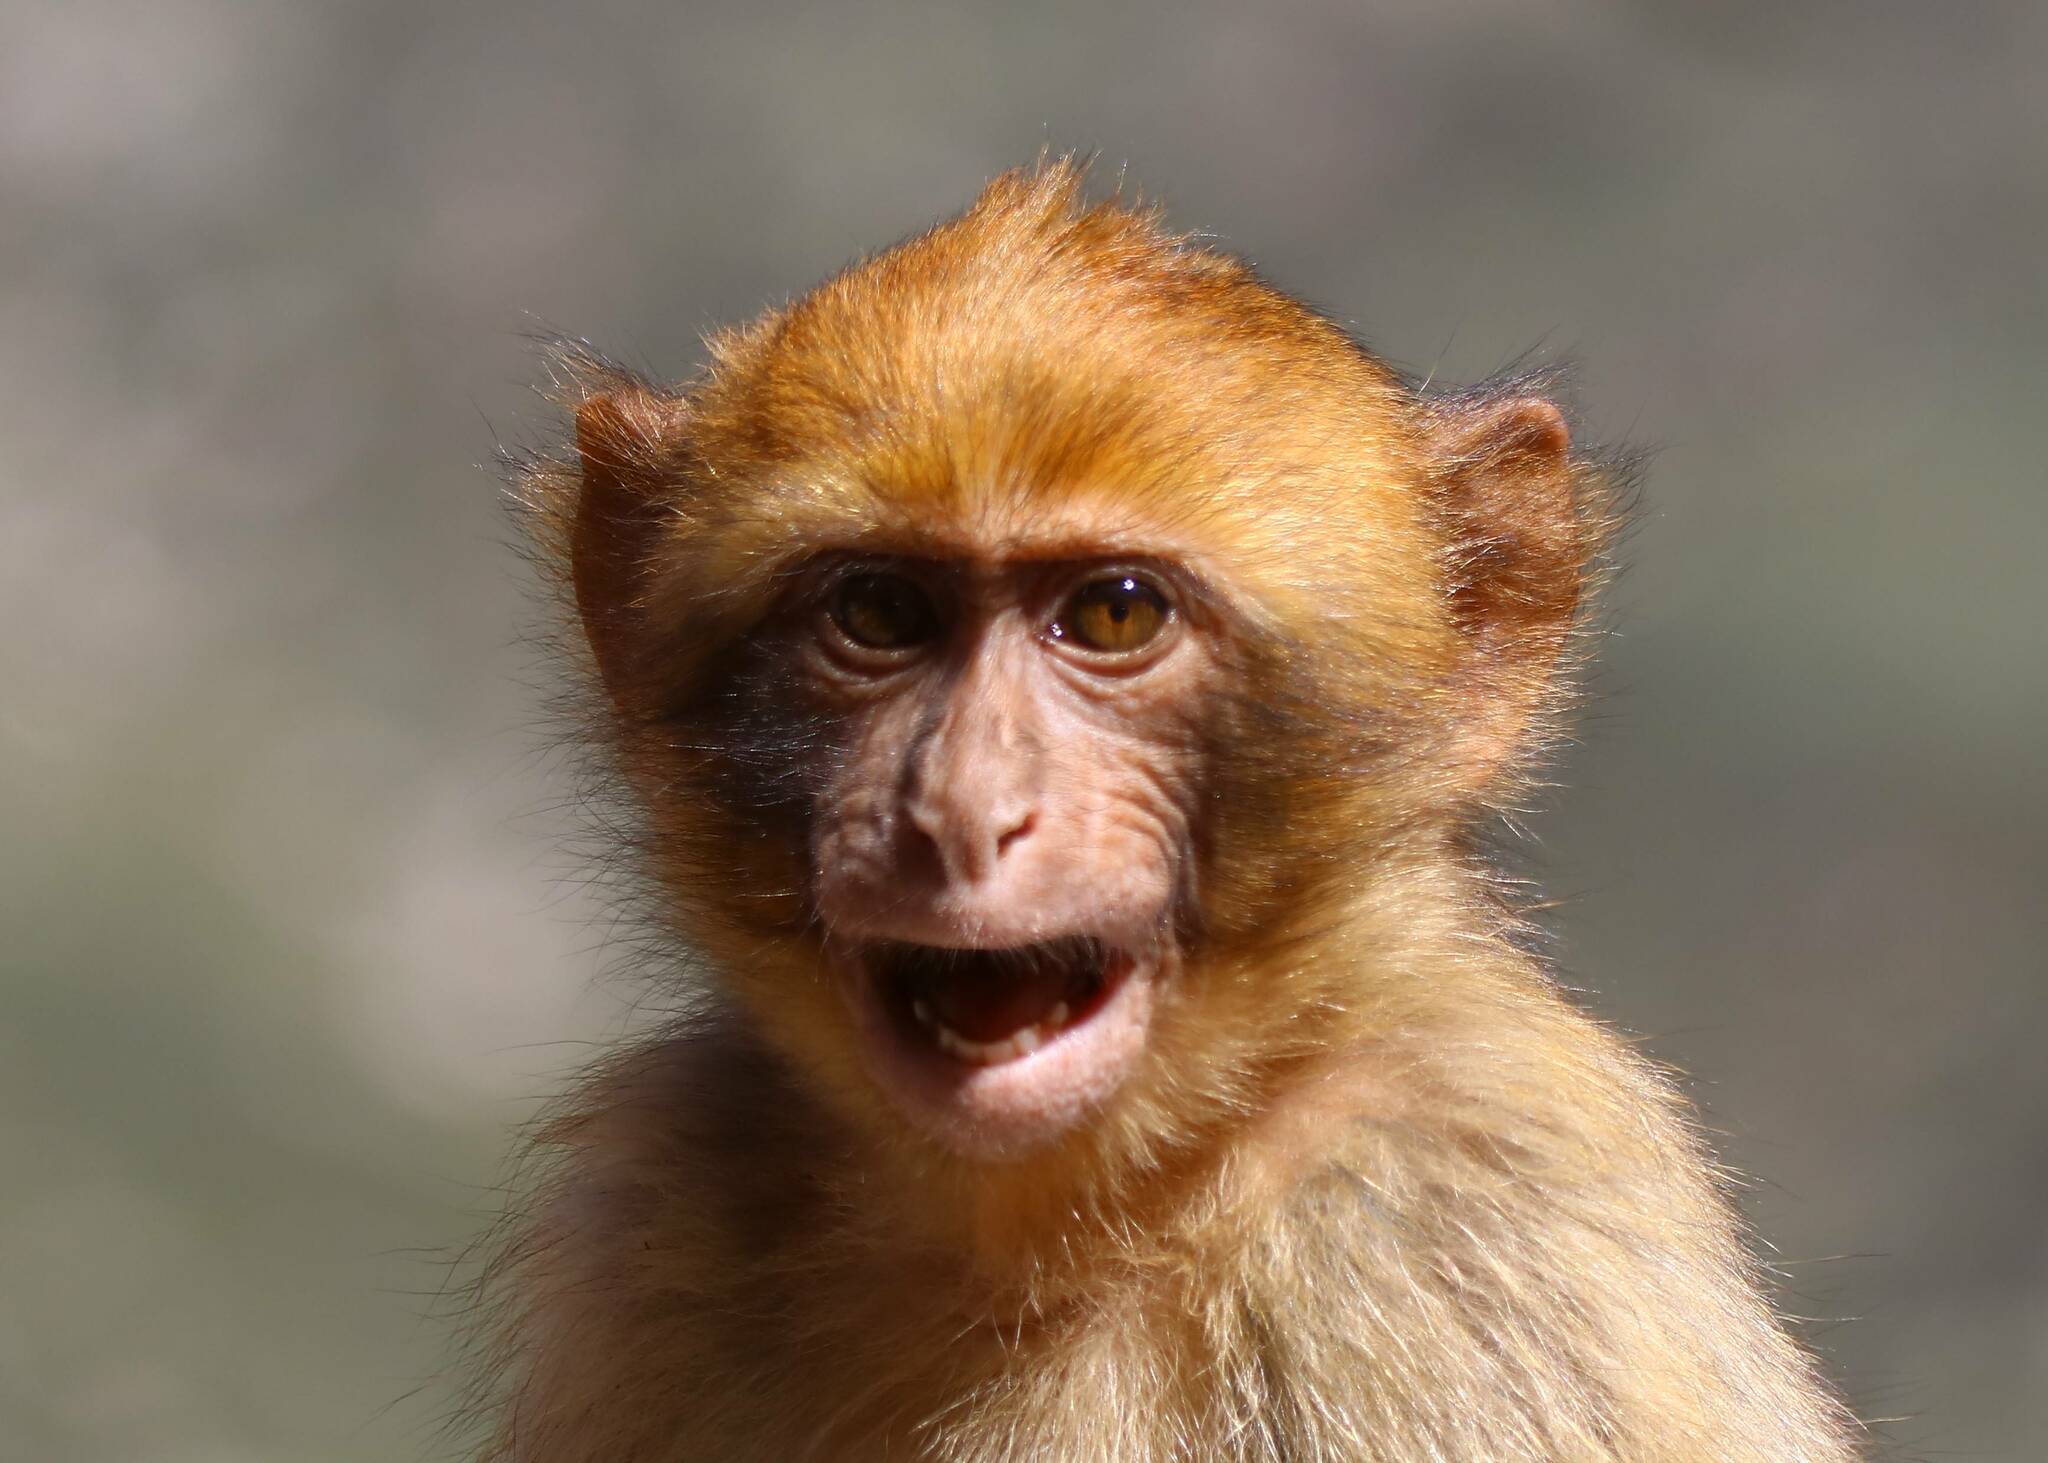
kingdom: Animalia
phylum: Chordata
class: Mammalia
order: Primates
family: Cercopithecidae
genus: Macaca
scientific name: Macaca sylvanus
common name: Barbary macaque
